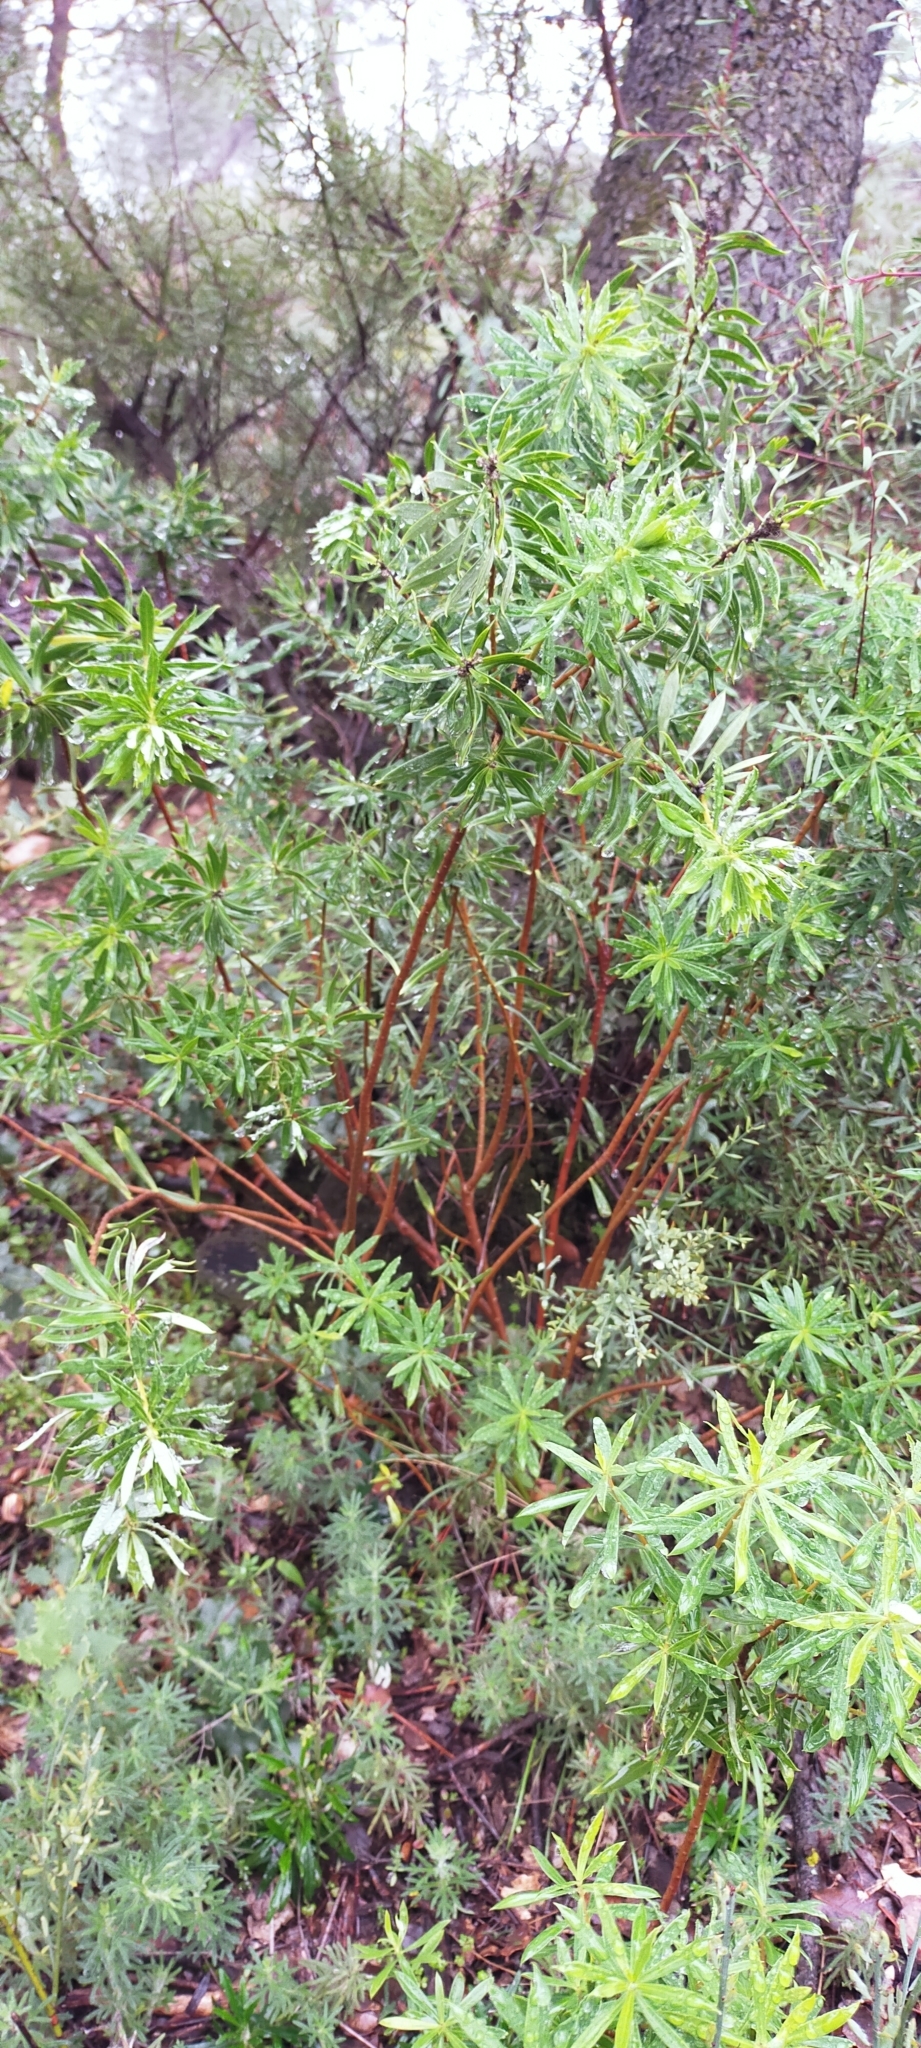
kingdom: Plantae
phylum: Tracheophyta
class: Magnoliopsida
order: Malvales
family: Thymelaeaceae
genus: Daphne
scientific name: Daphne gnidium
